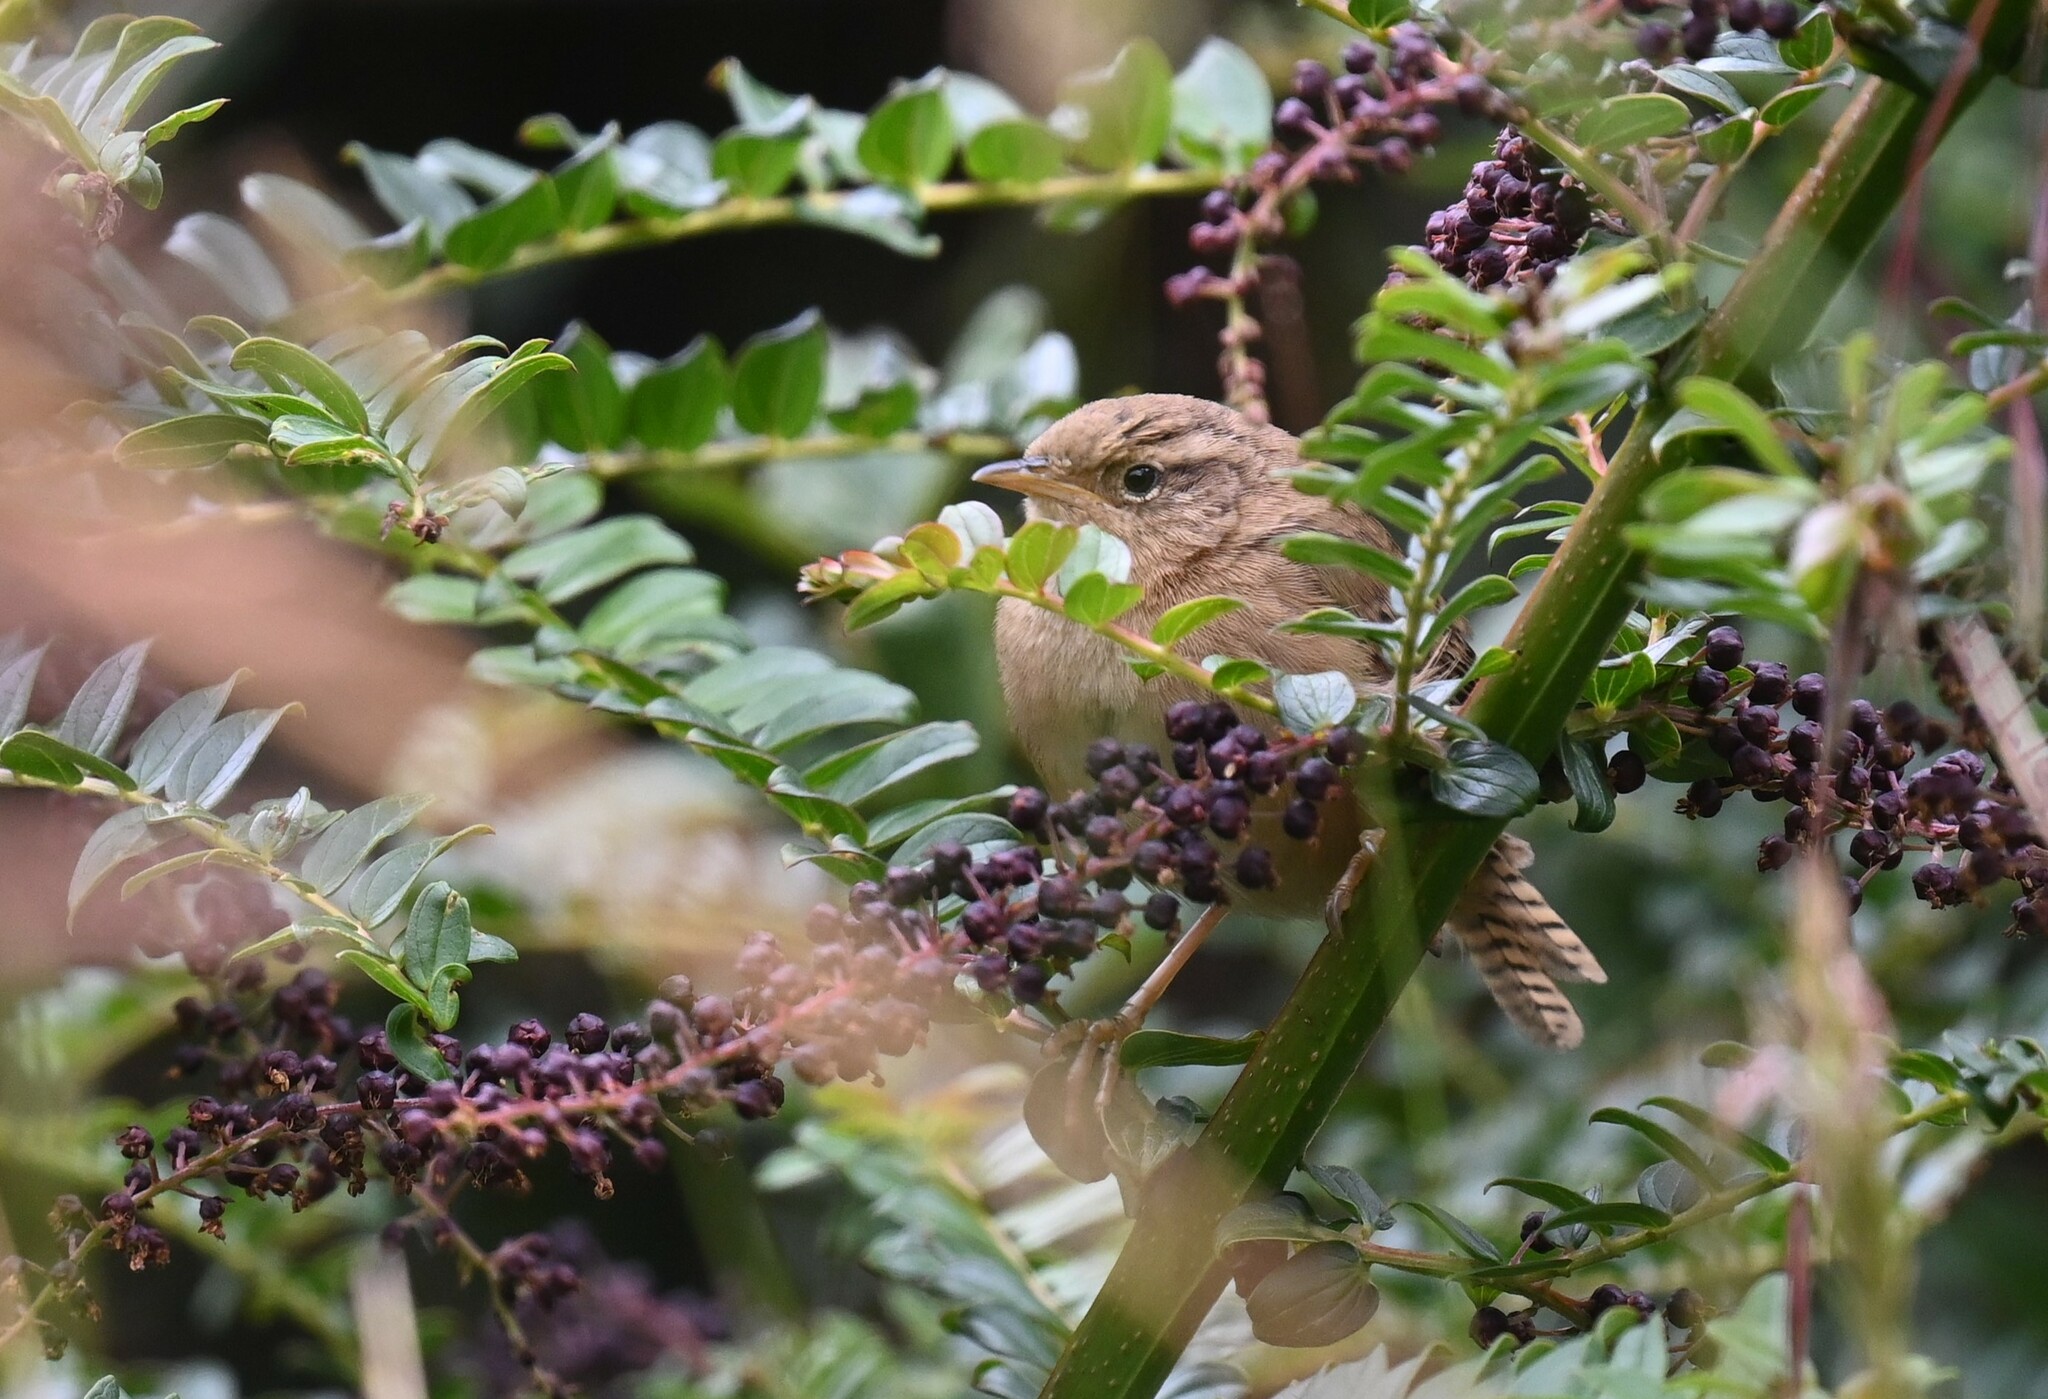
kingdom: Animalia
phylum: Chordata
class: Aves
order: Passeriformes
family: Troglodytidae
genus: Cistothorus
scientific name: Cistothorus platensis
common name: Sedge wren
